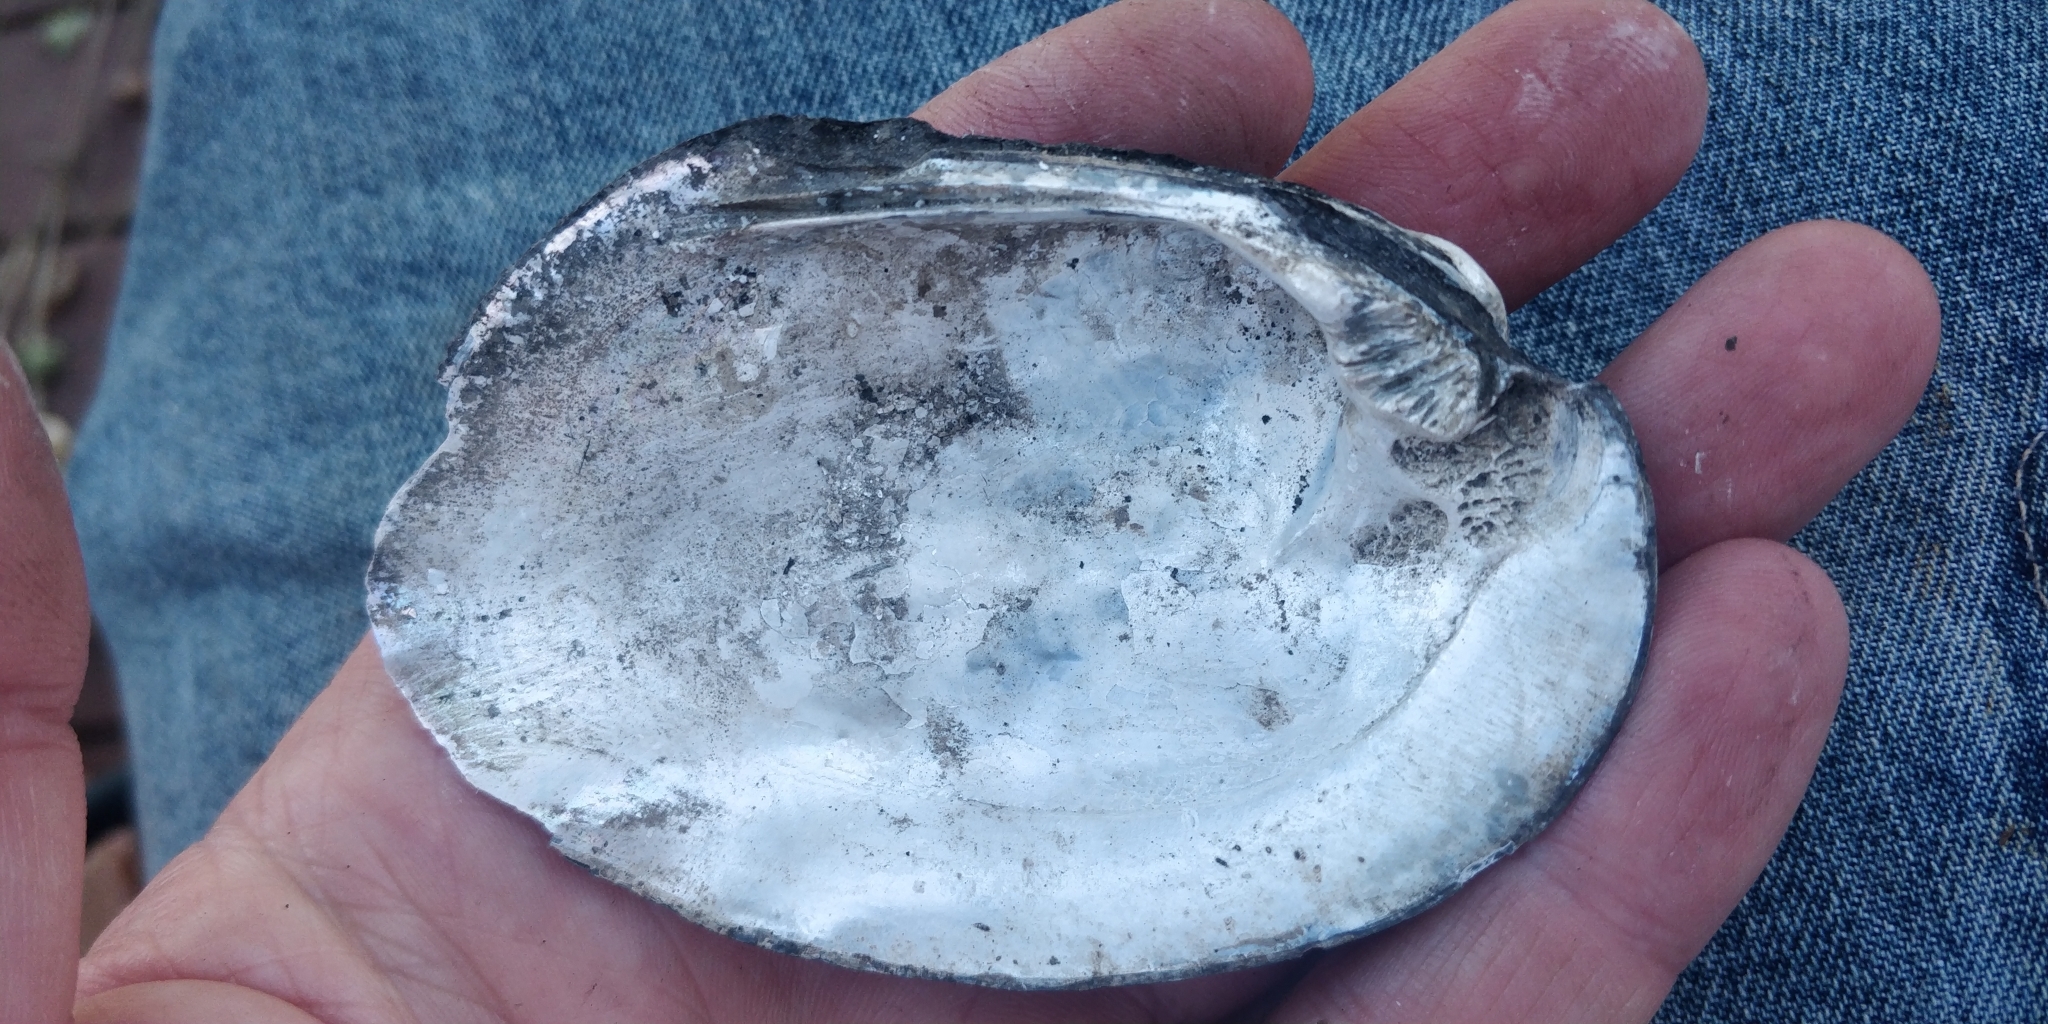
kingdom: Animalia
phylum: Mollusca
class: Bivalvia
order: Unionida
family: Unionidae
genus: Amblema
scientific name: Amblema plicata
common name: Threeridge
